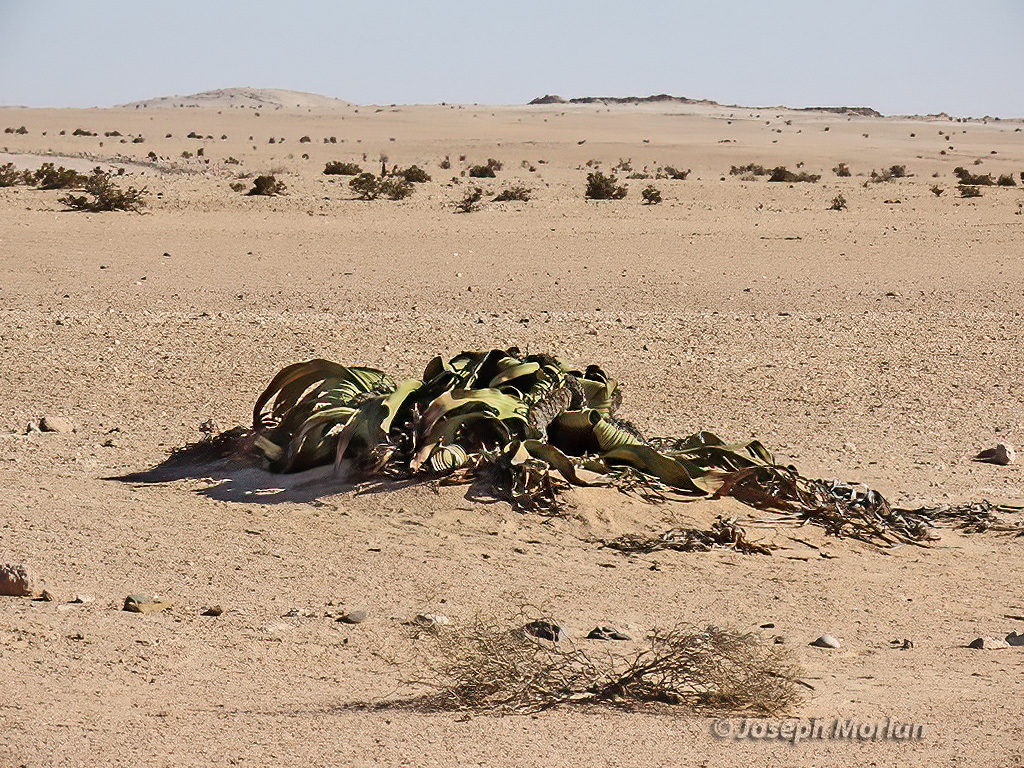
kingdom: Plantae
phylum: Tracheophyta
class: Gnetopsida
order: Welwitschiales
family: Welwitschiaceae
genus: Welwitschia
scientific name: Welwitschia mirabilis
